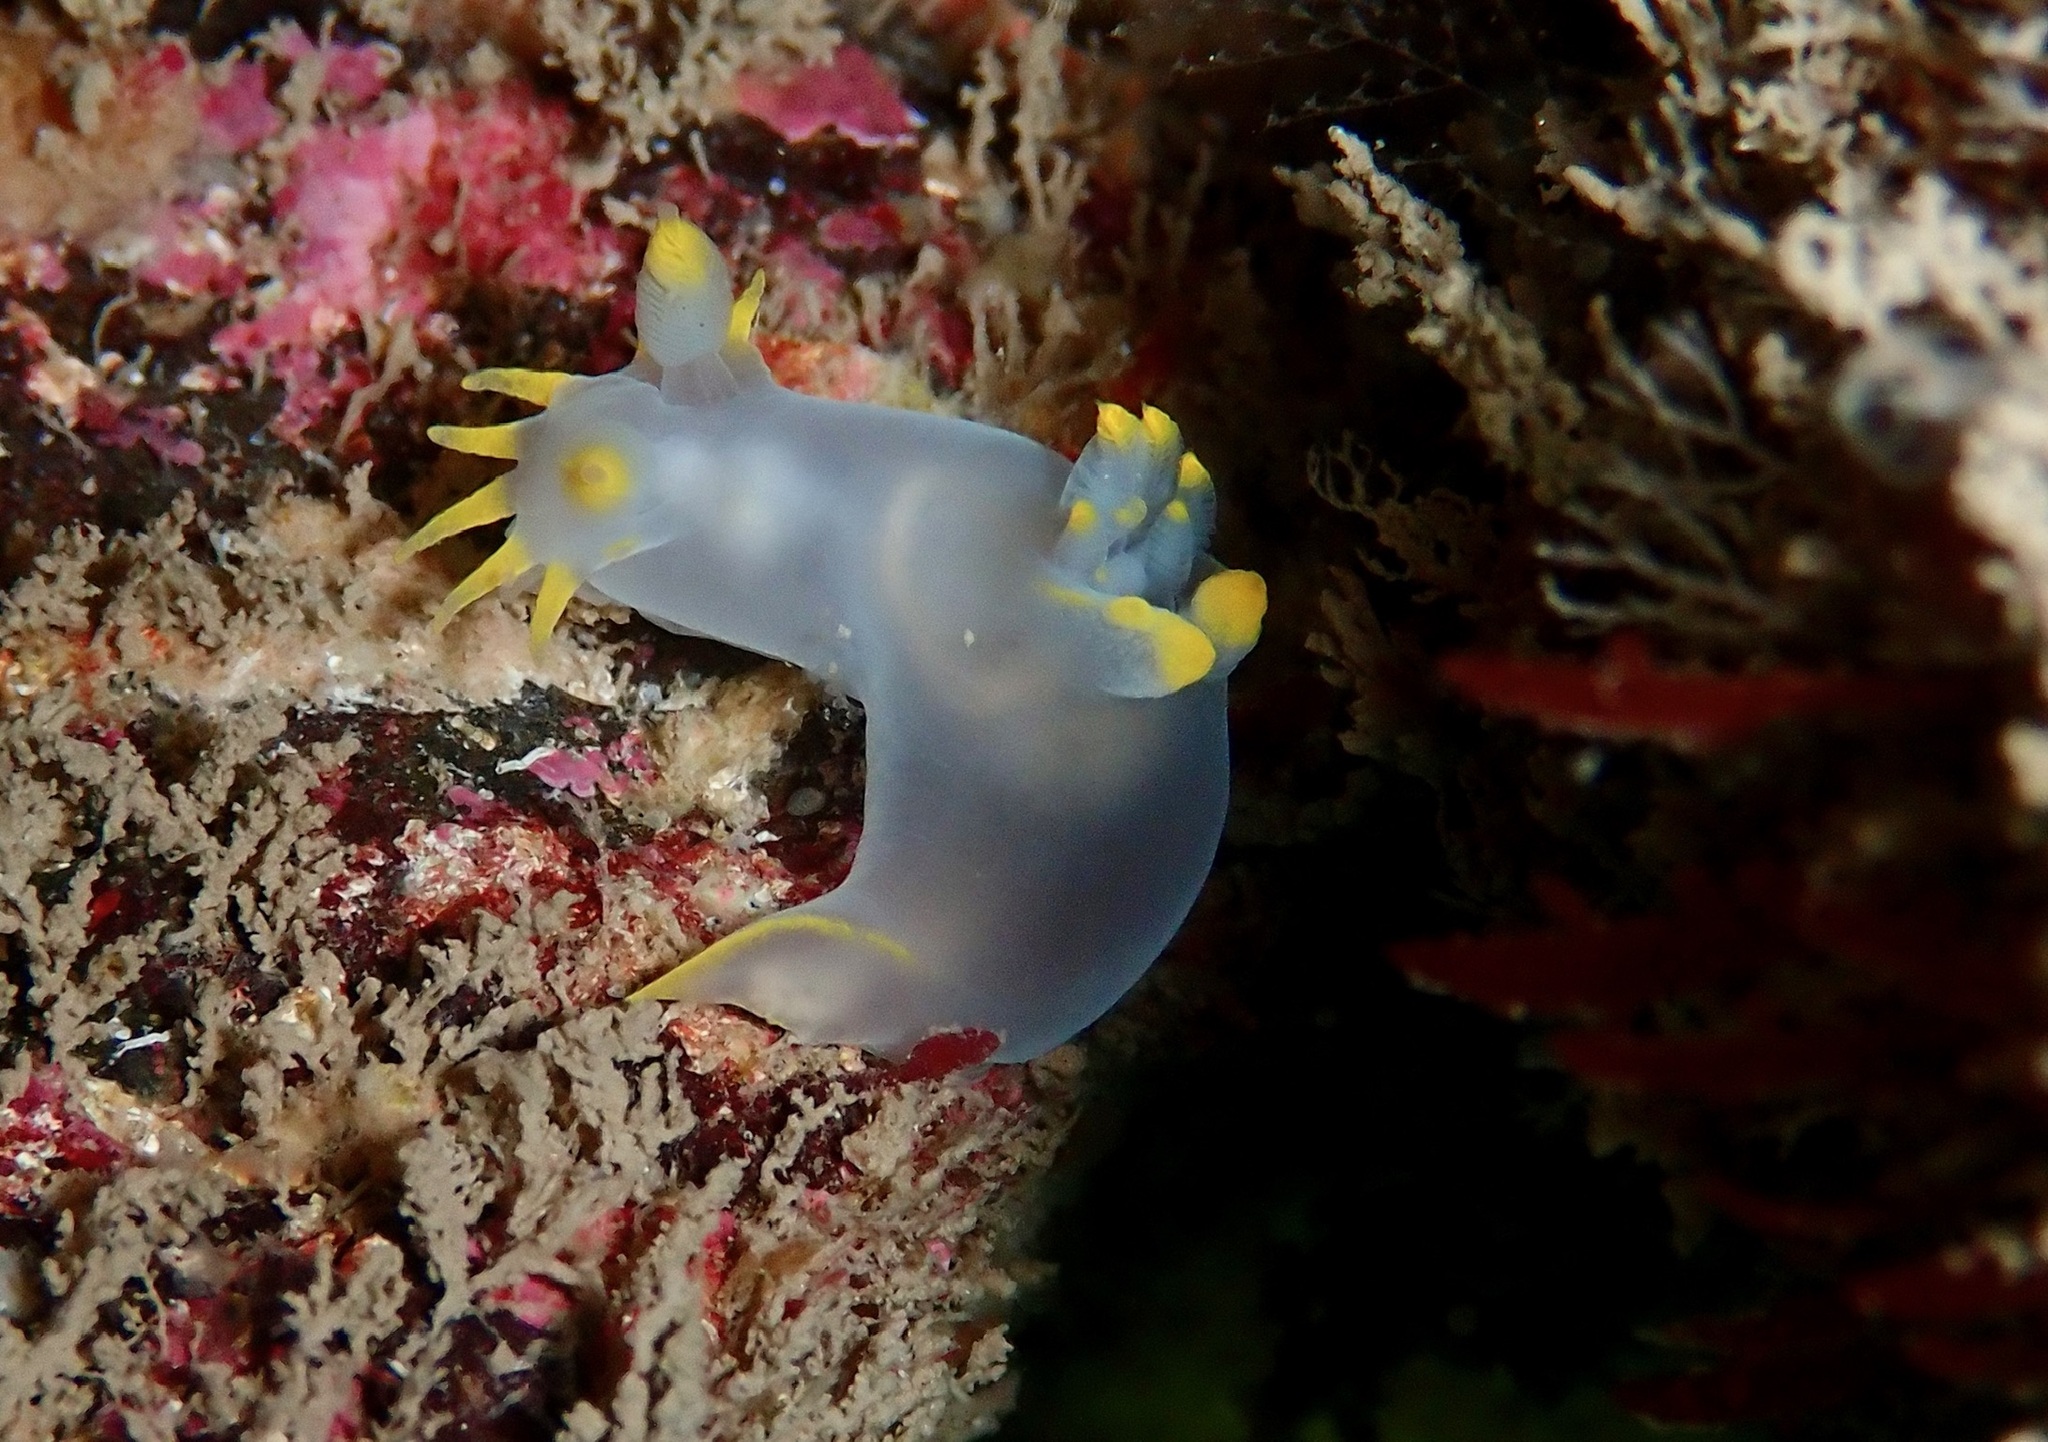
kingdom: Animalia
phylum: Mollusca
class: Gastropoda
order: Nudibranchia
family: Polyceridae
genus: Polycera
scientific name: Polycera kernowensis
